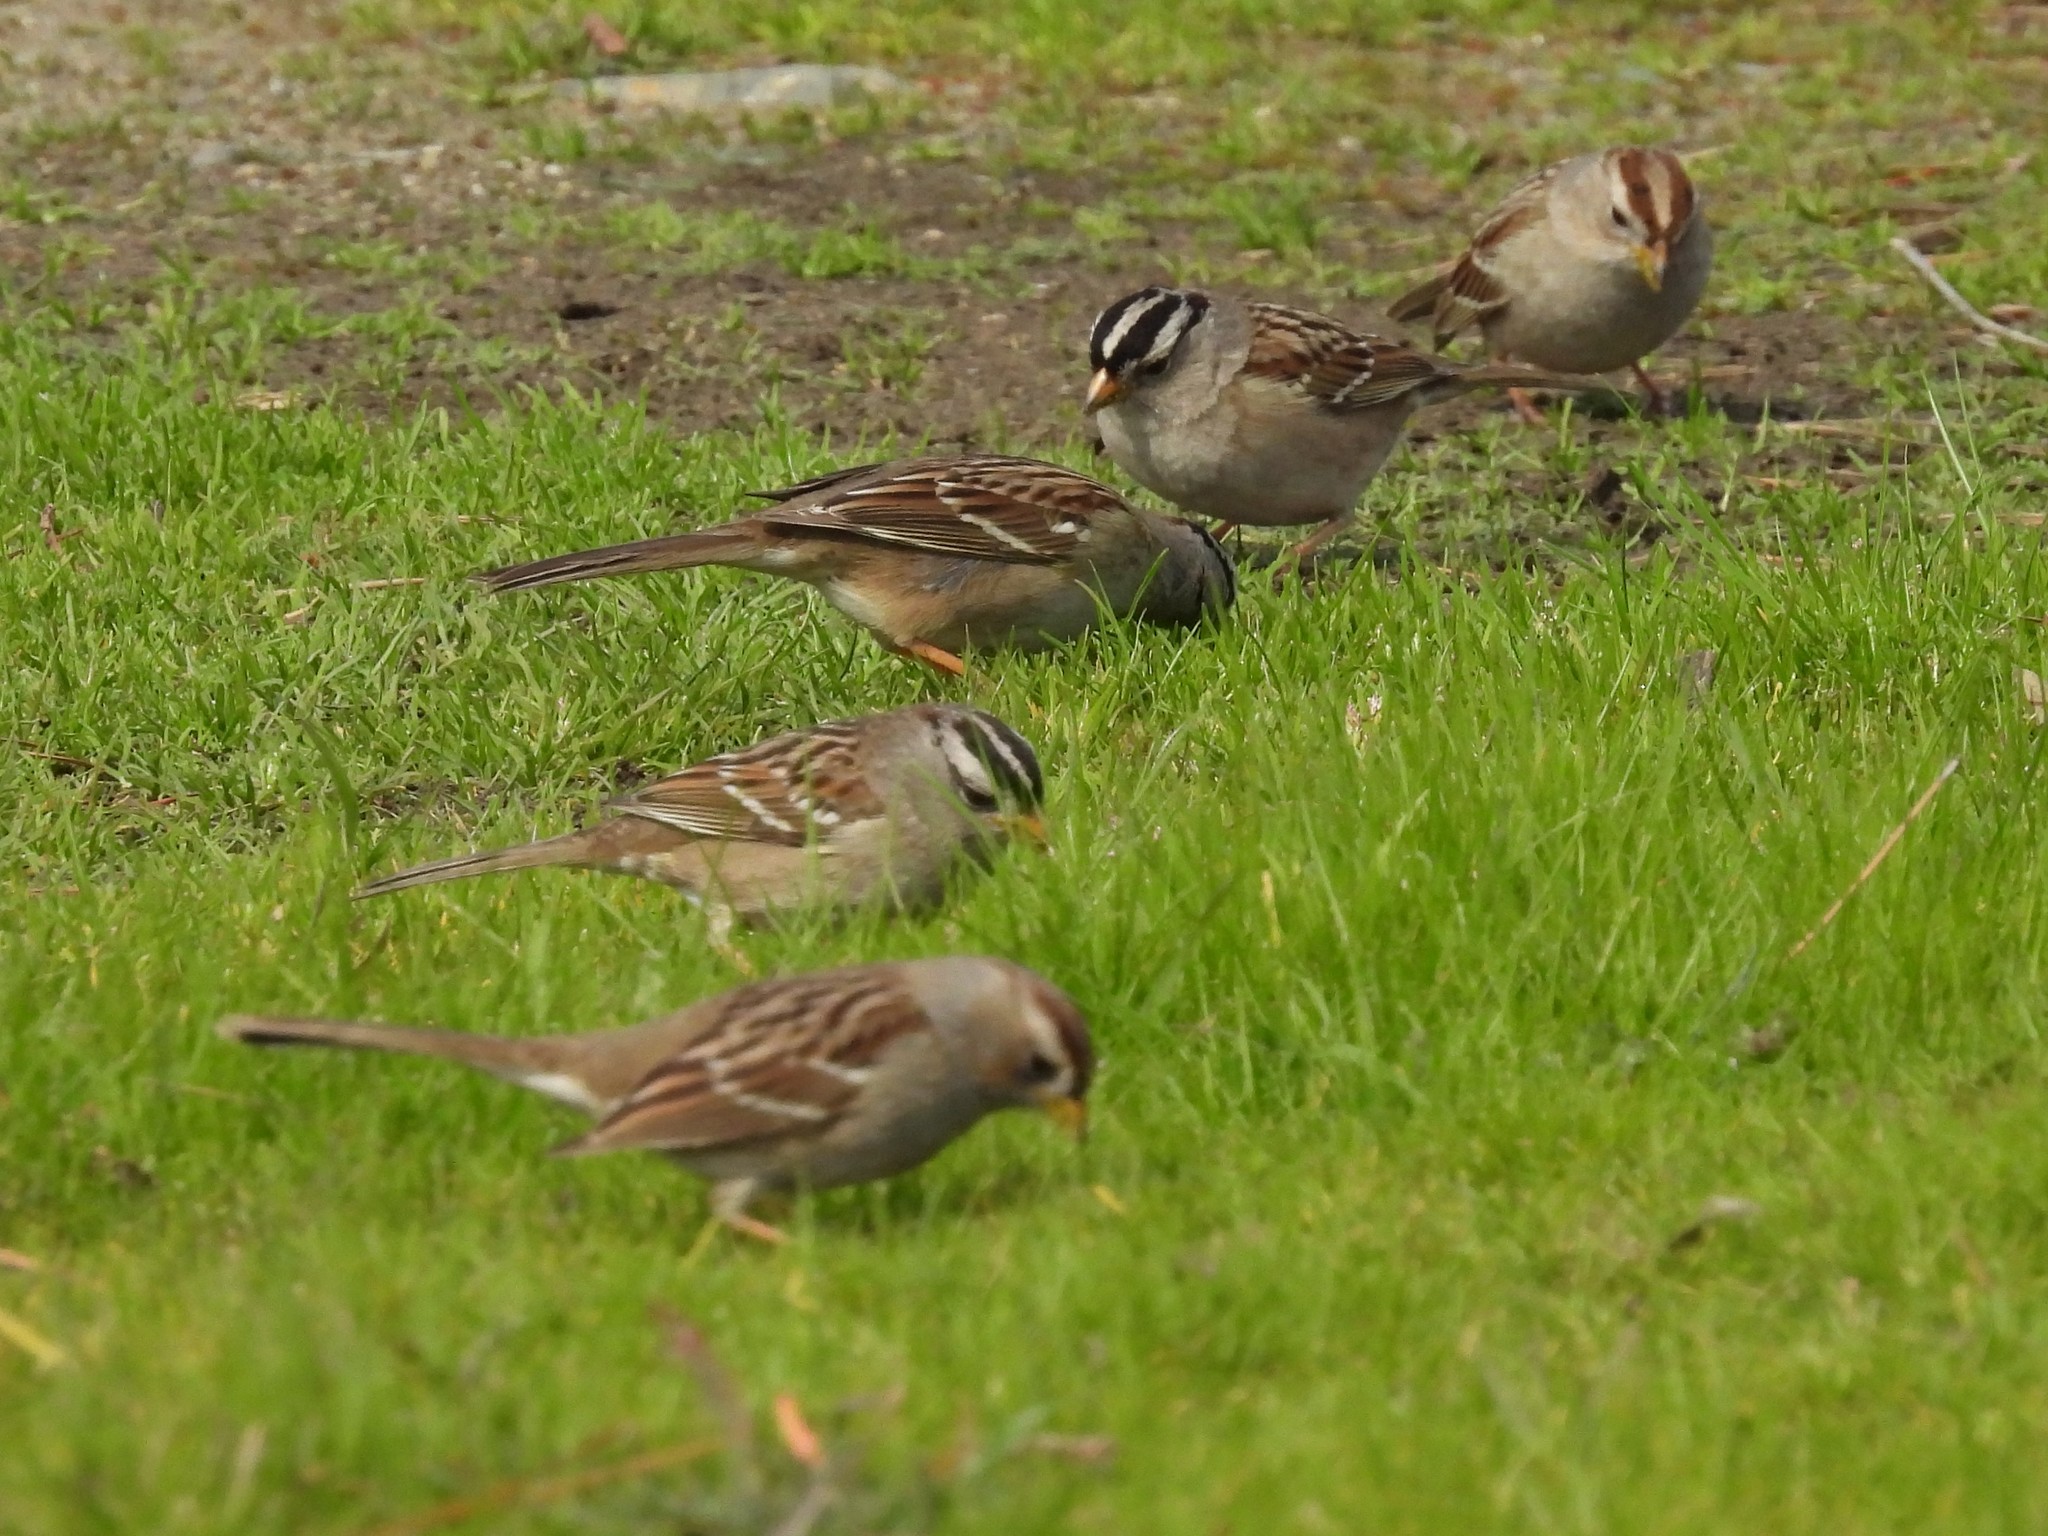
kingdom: Animalia
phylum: Chordata
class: Aves
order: Passeriformes
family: Passerellidae
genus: Zonotrichia
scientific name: Zonotrichia leucophrys
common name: White-crowned sparrow
